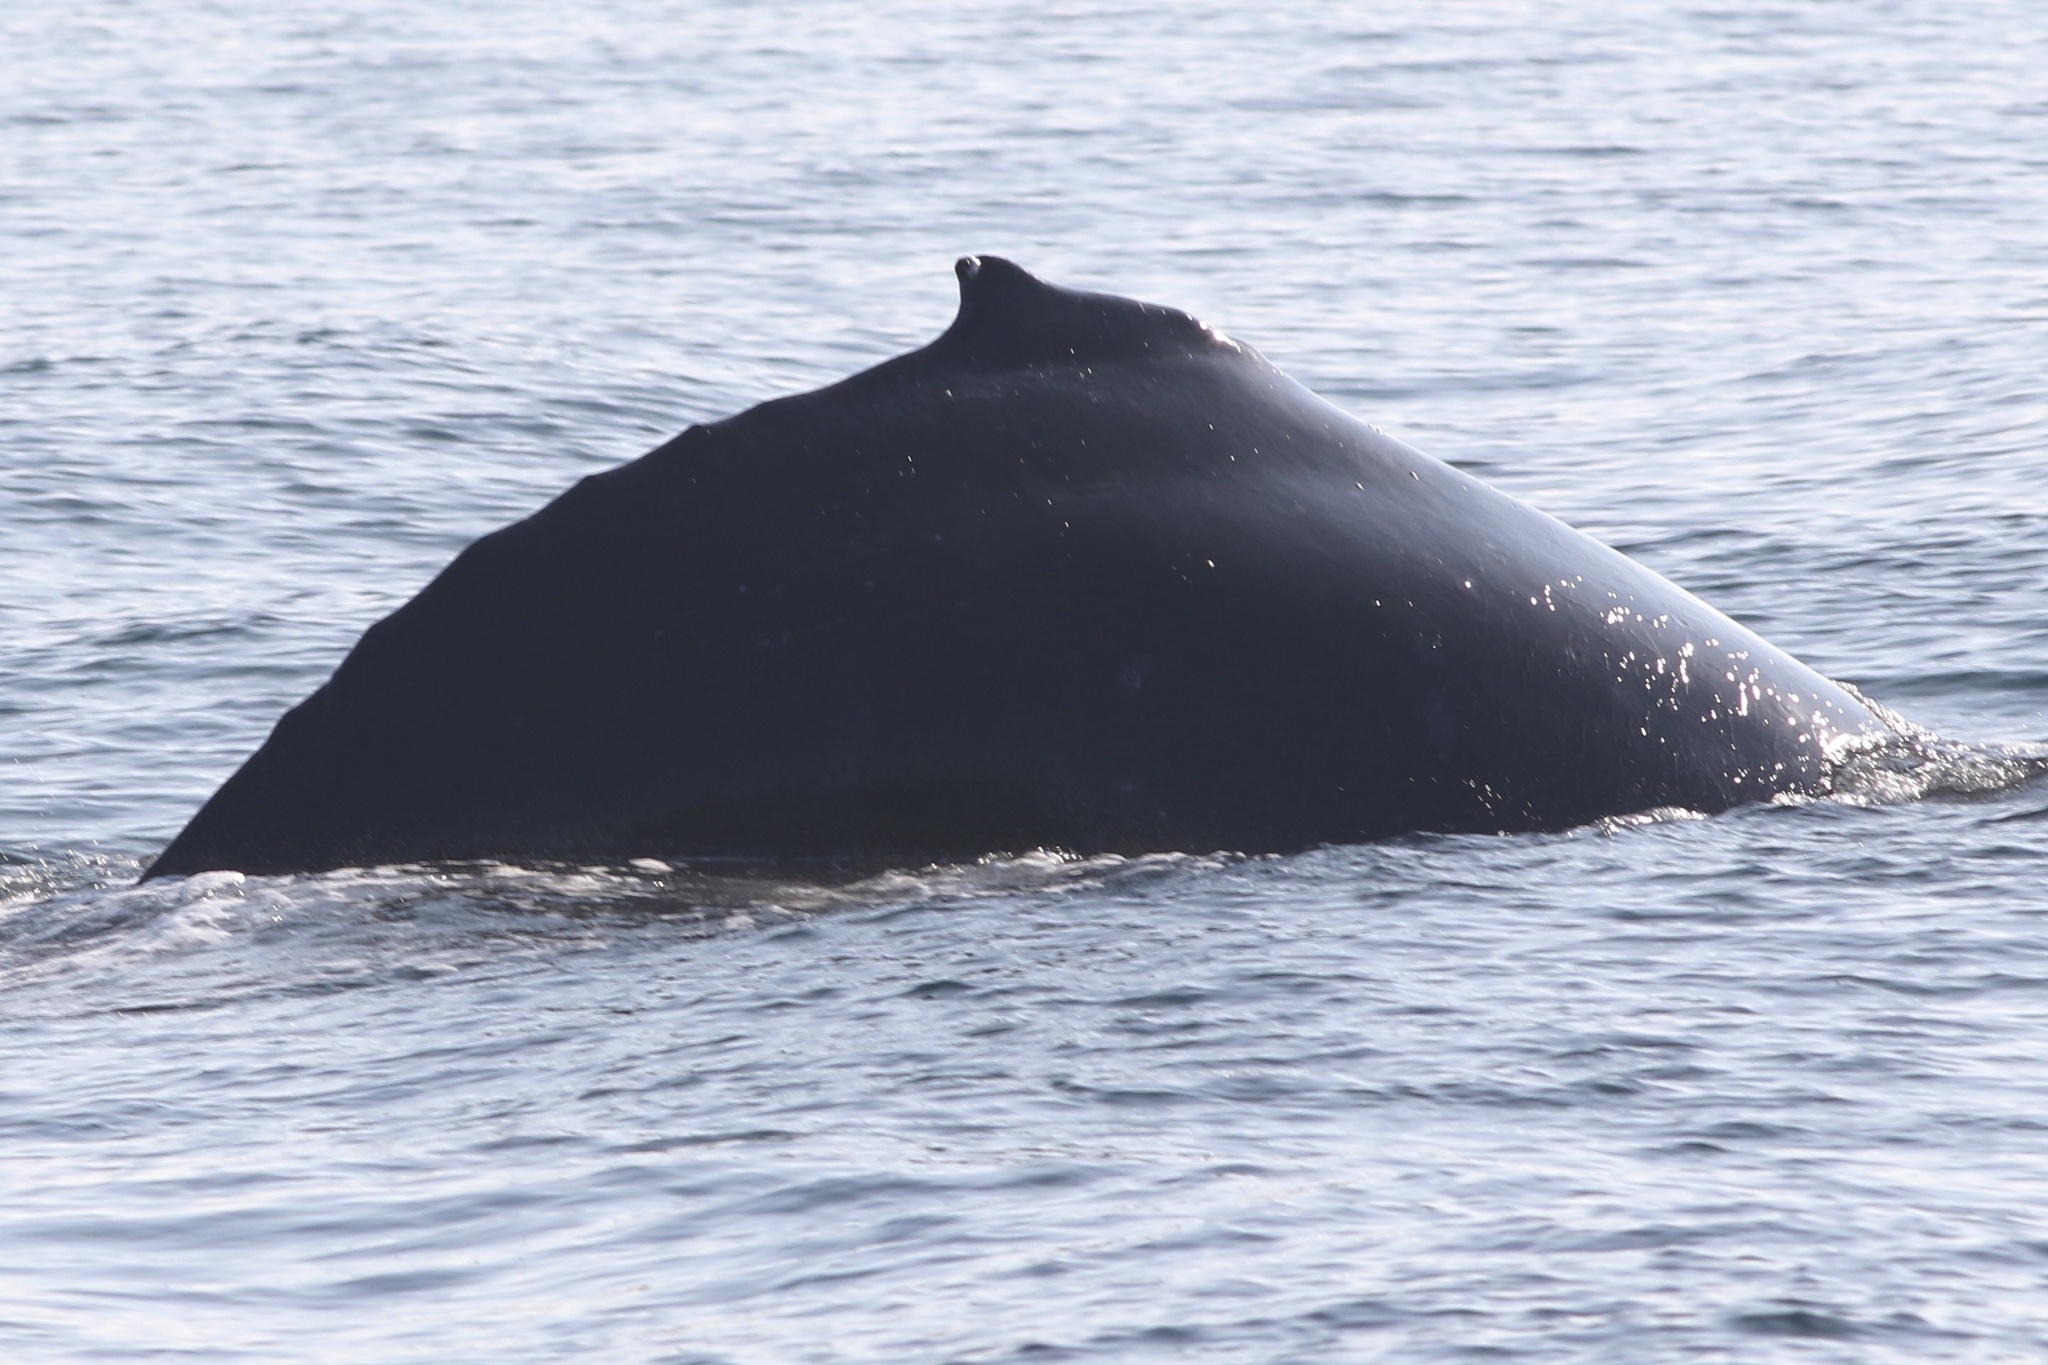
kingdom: Animalia
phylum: Chordata
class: Mammalia
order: Cetacea
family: Balaenopteridae
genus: Megaptera
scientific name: Megaptera novaeangliae
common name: Humpback whale
